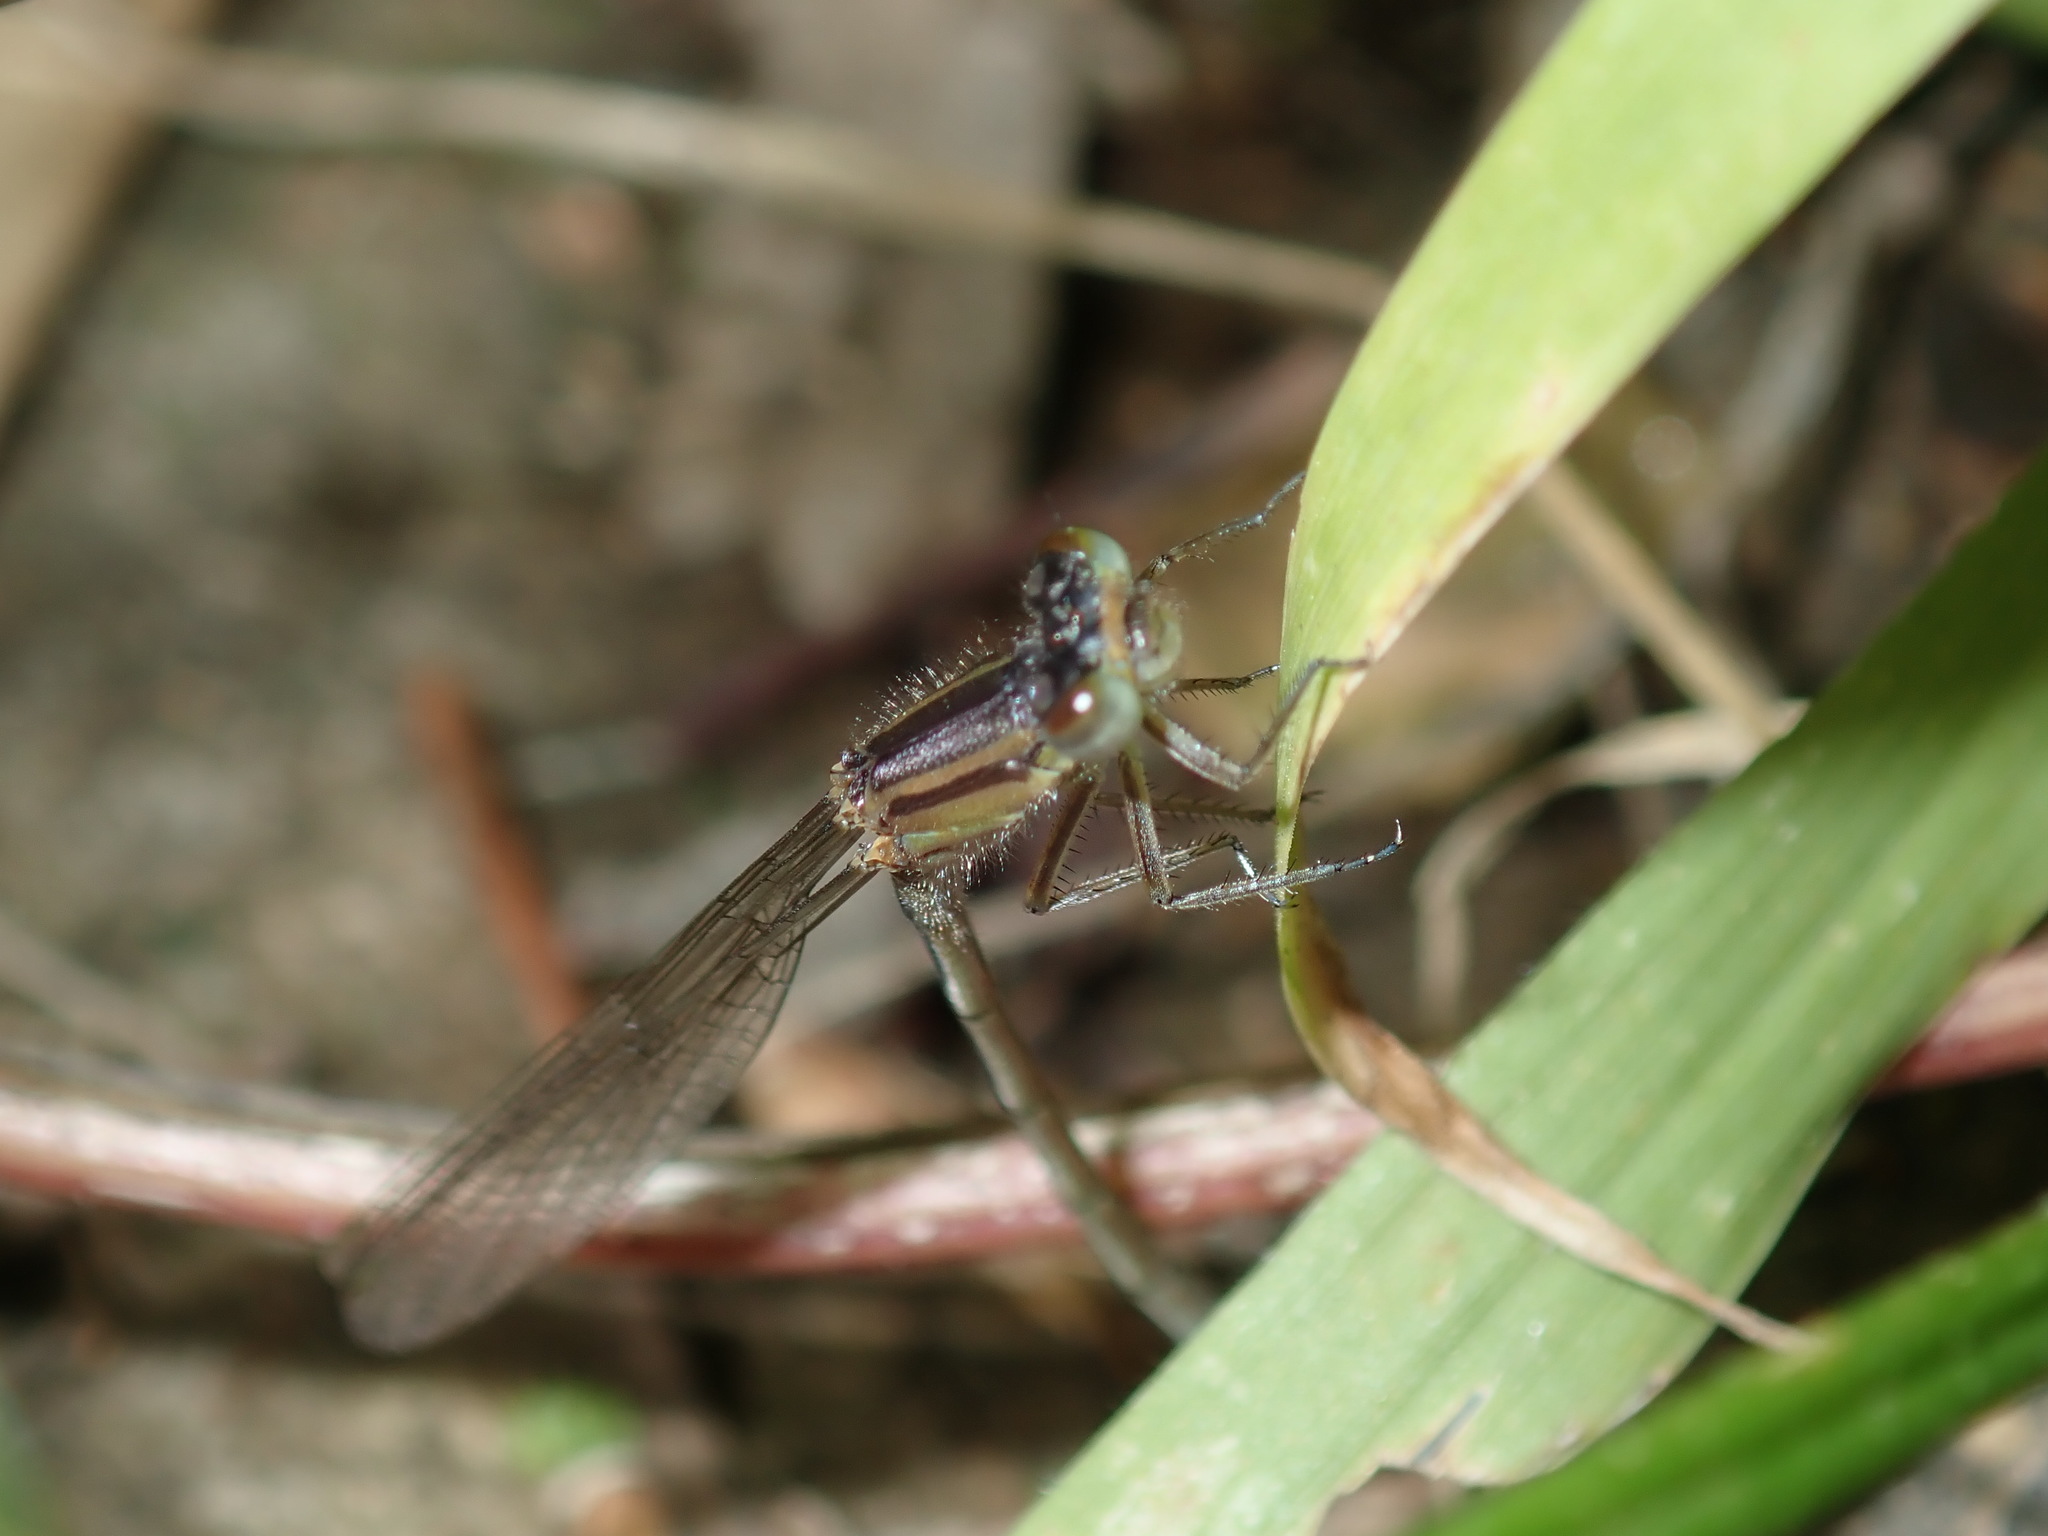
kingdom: Animalia
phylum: Arthropoda
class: Insecta
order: Odonata
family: Coenagrionidae
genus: Ischnura
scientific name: Ischnura heterosticta
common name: Common bluetail
